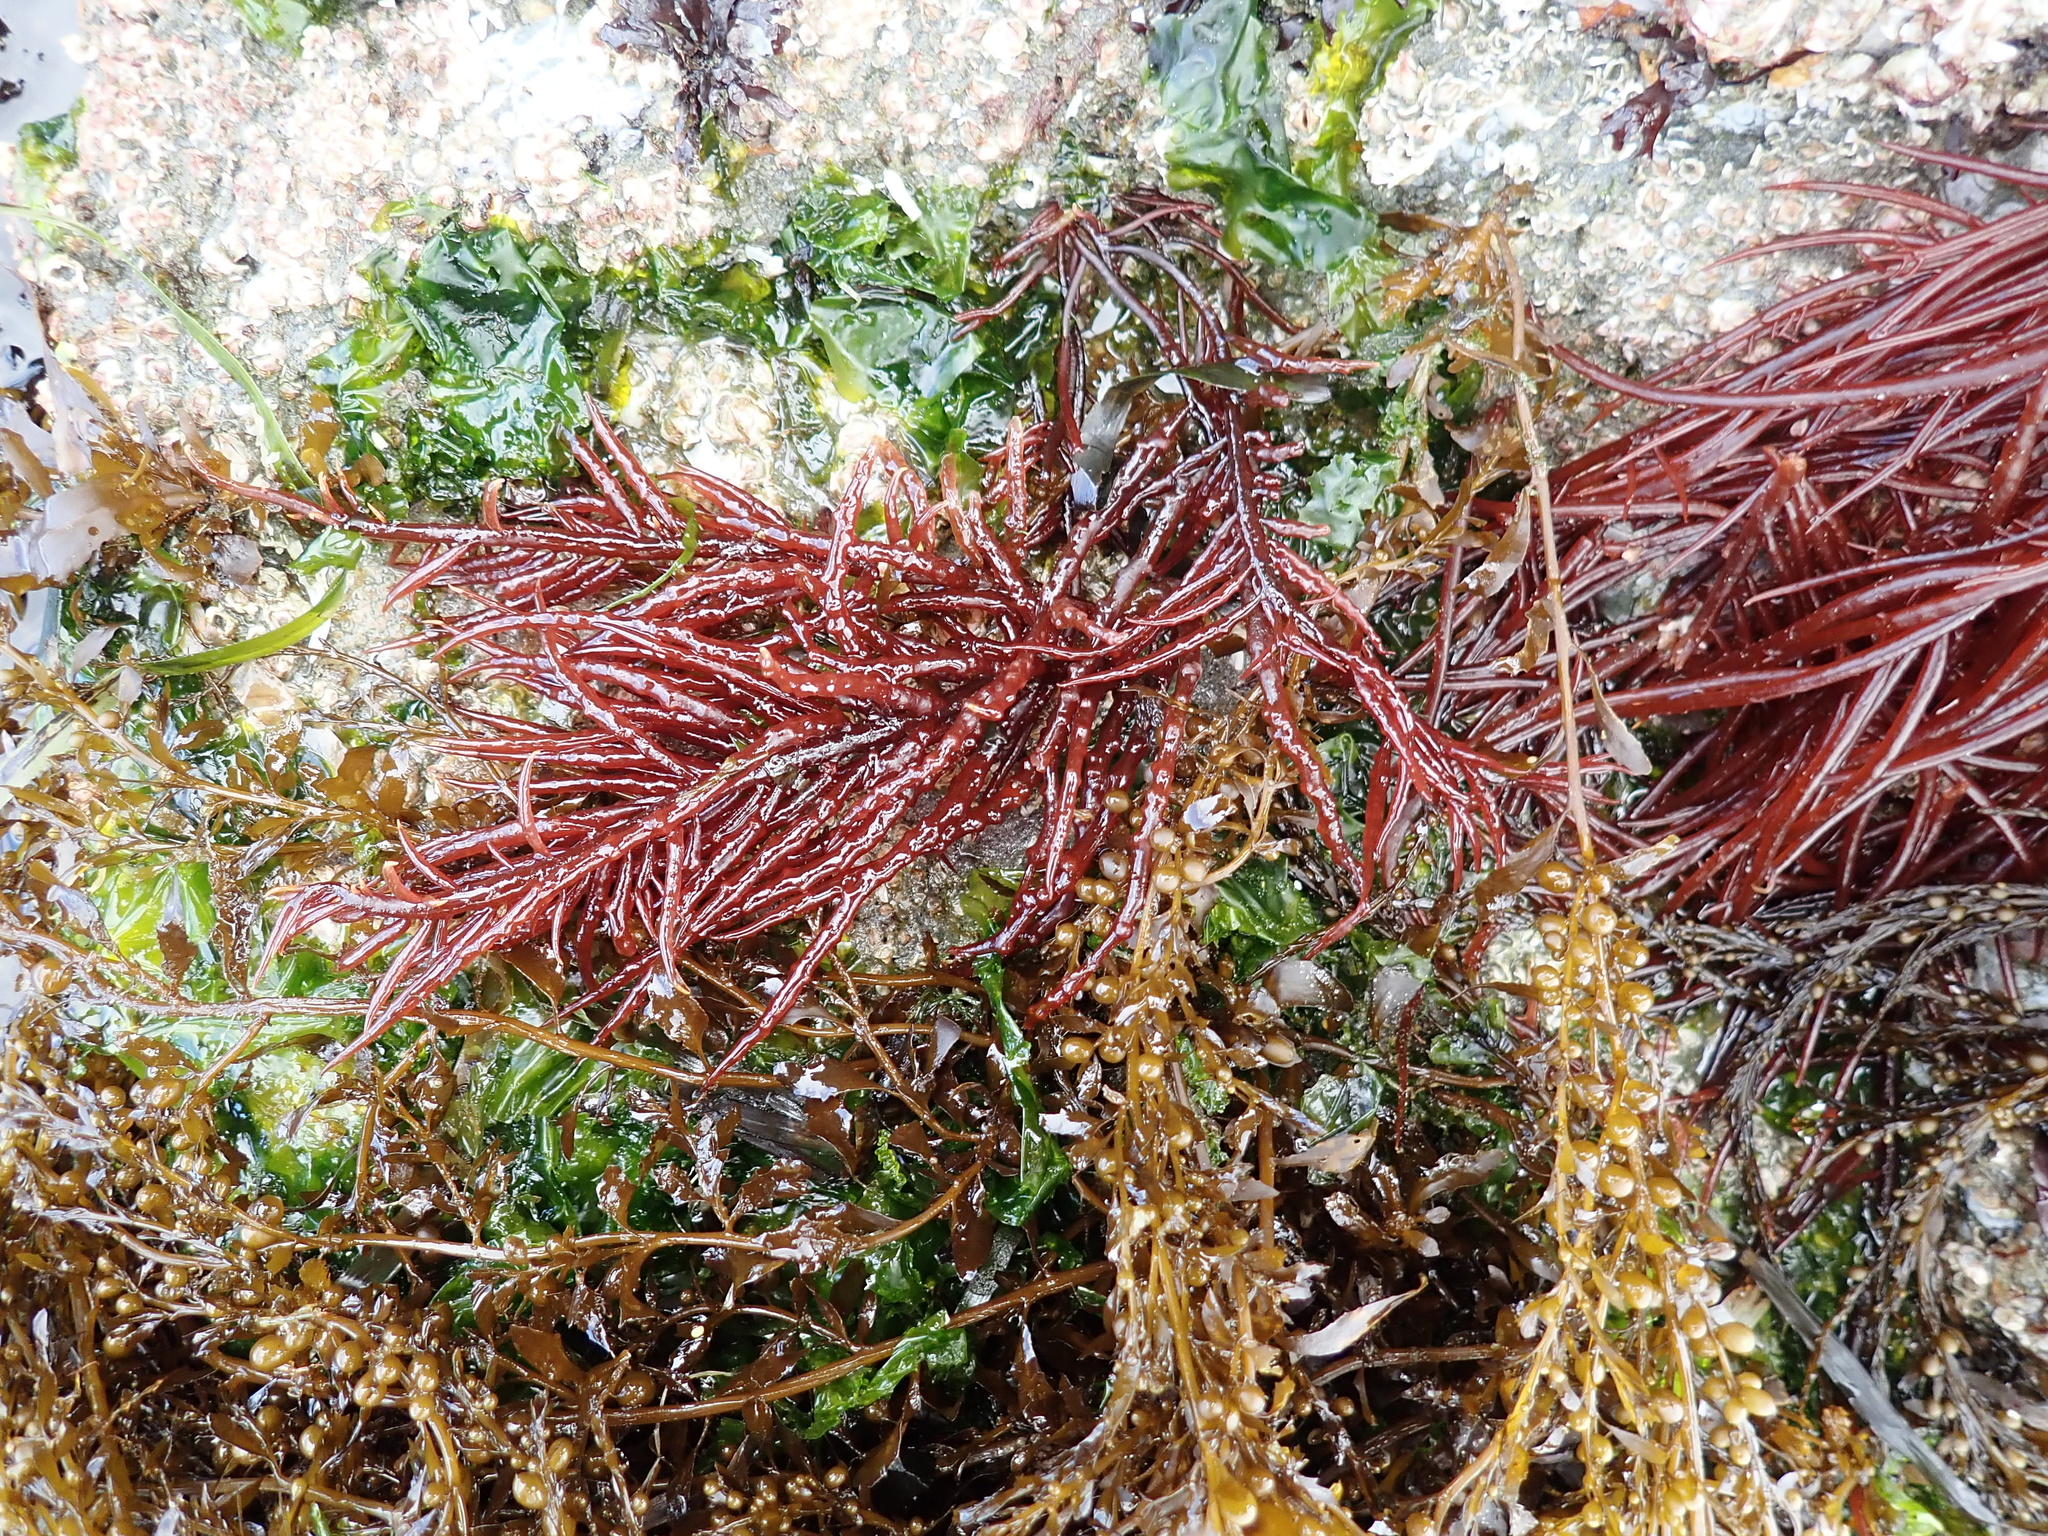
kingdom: Plantae
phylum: Rhodophyta
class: Florideophyceae
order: Gigartinales
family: Solieriaceae
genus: Sarcodiotheca
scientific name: Sarcodiotheca gaudichaudii
